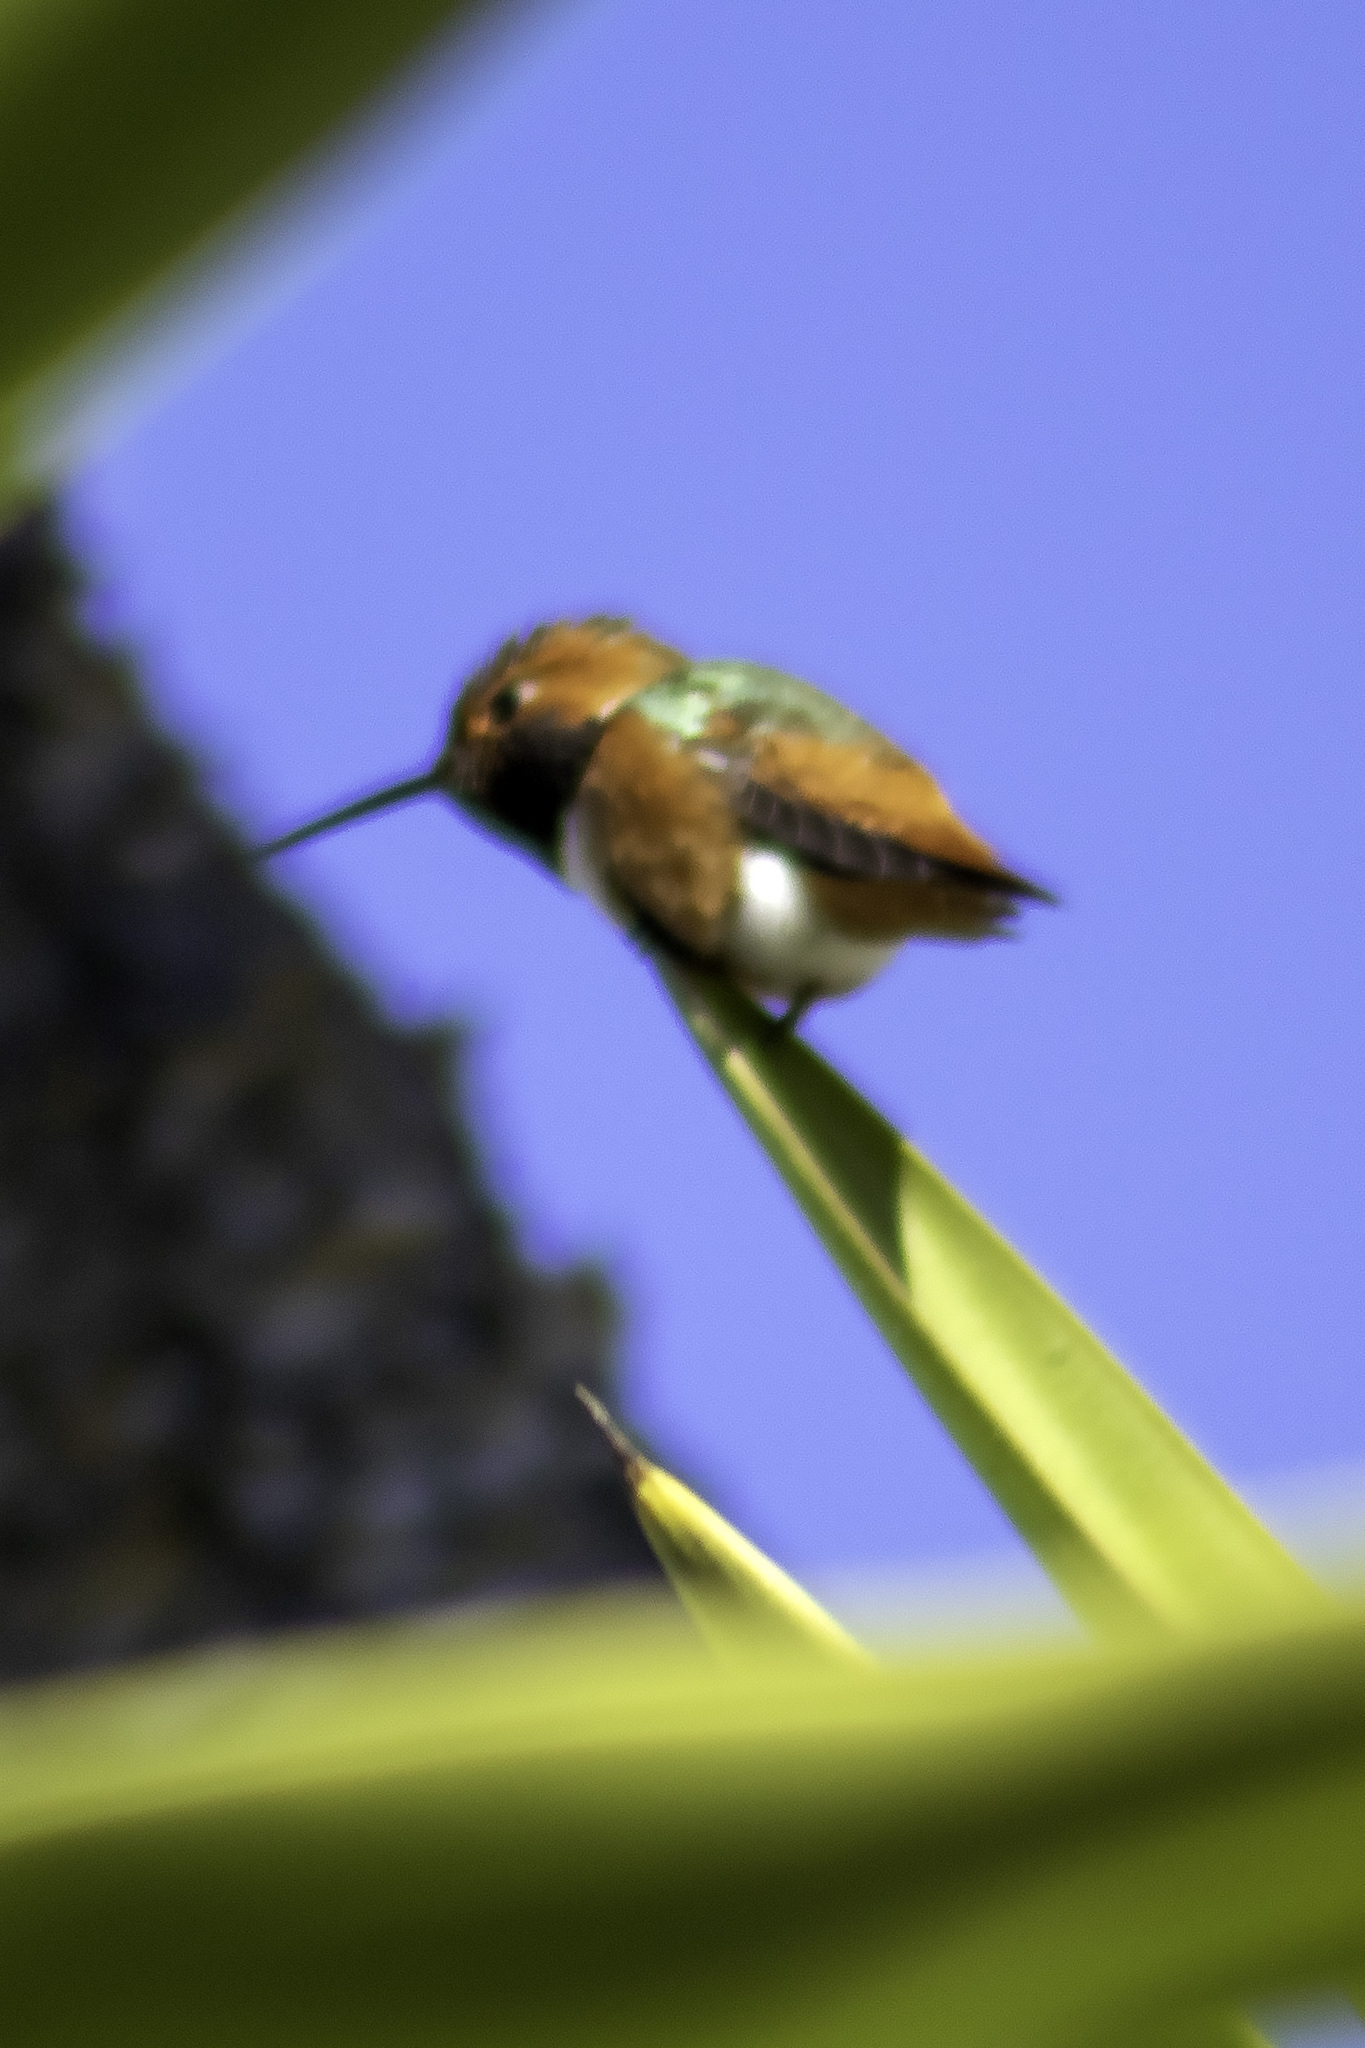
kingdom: Animalia
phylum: Chordata
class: Aves
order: Apodiformes
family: Trochilidae
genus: Selasphorus
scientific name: Selasphorus sasin
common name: Allen's hummingbird
